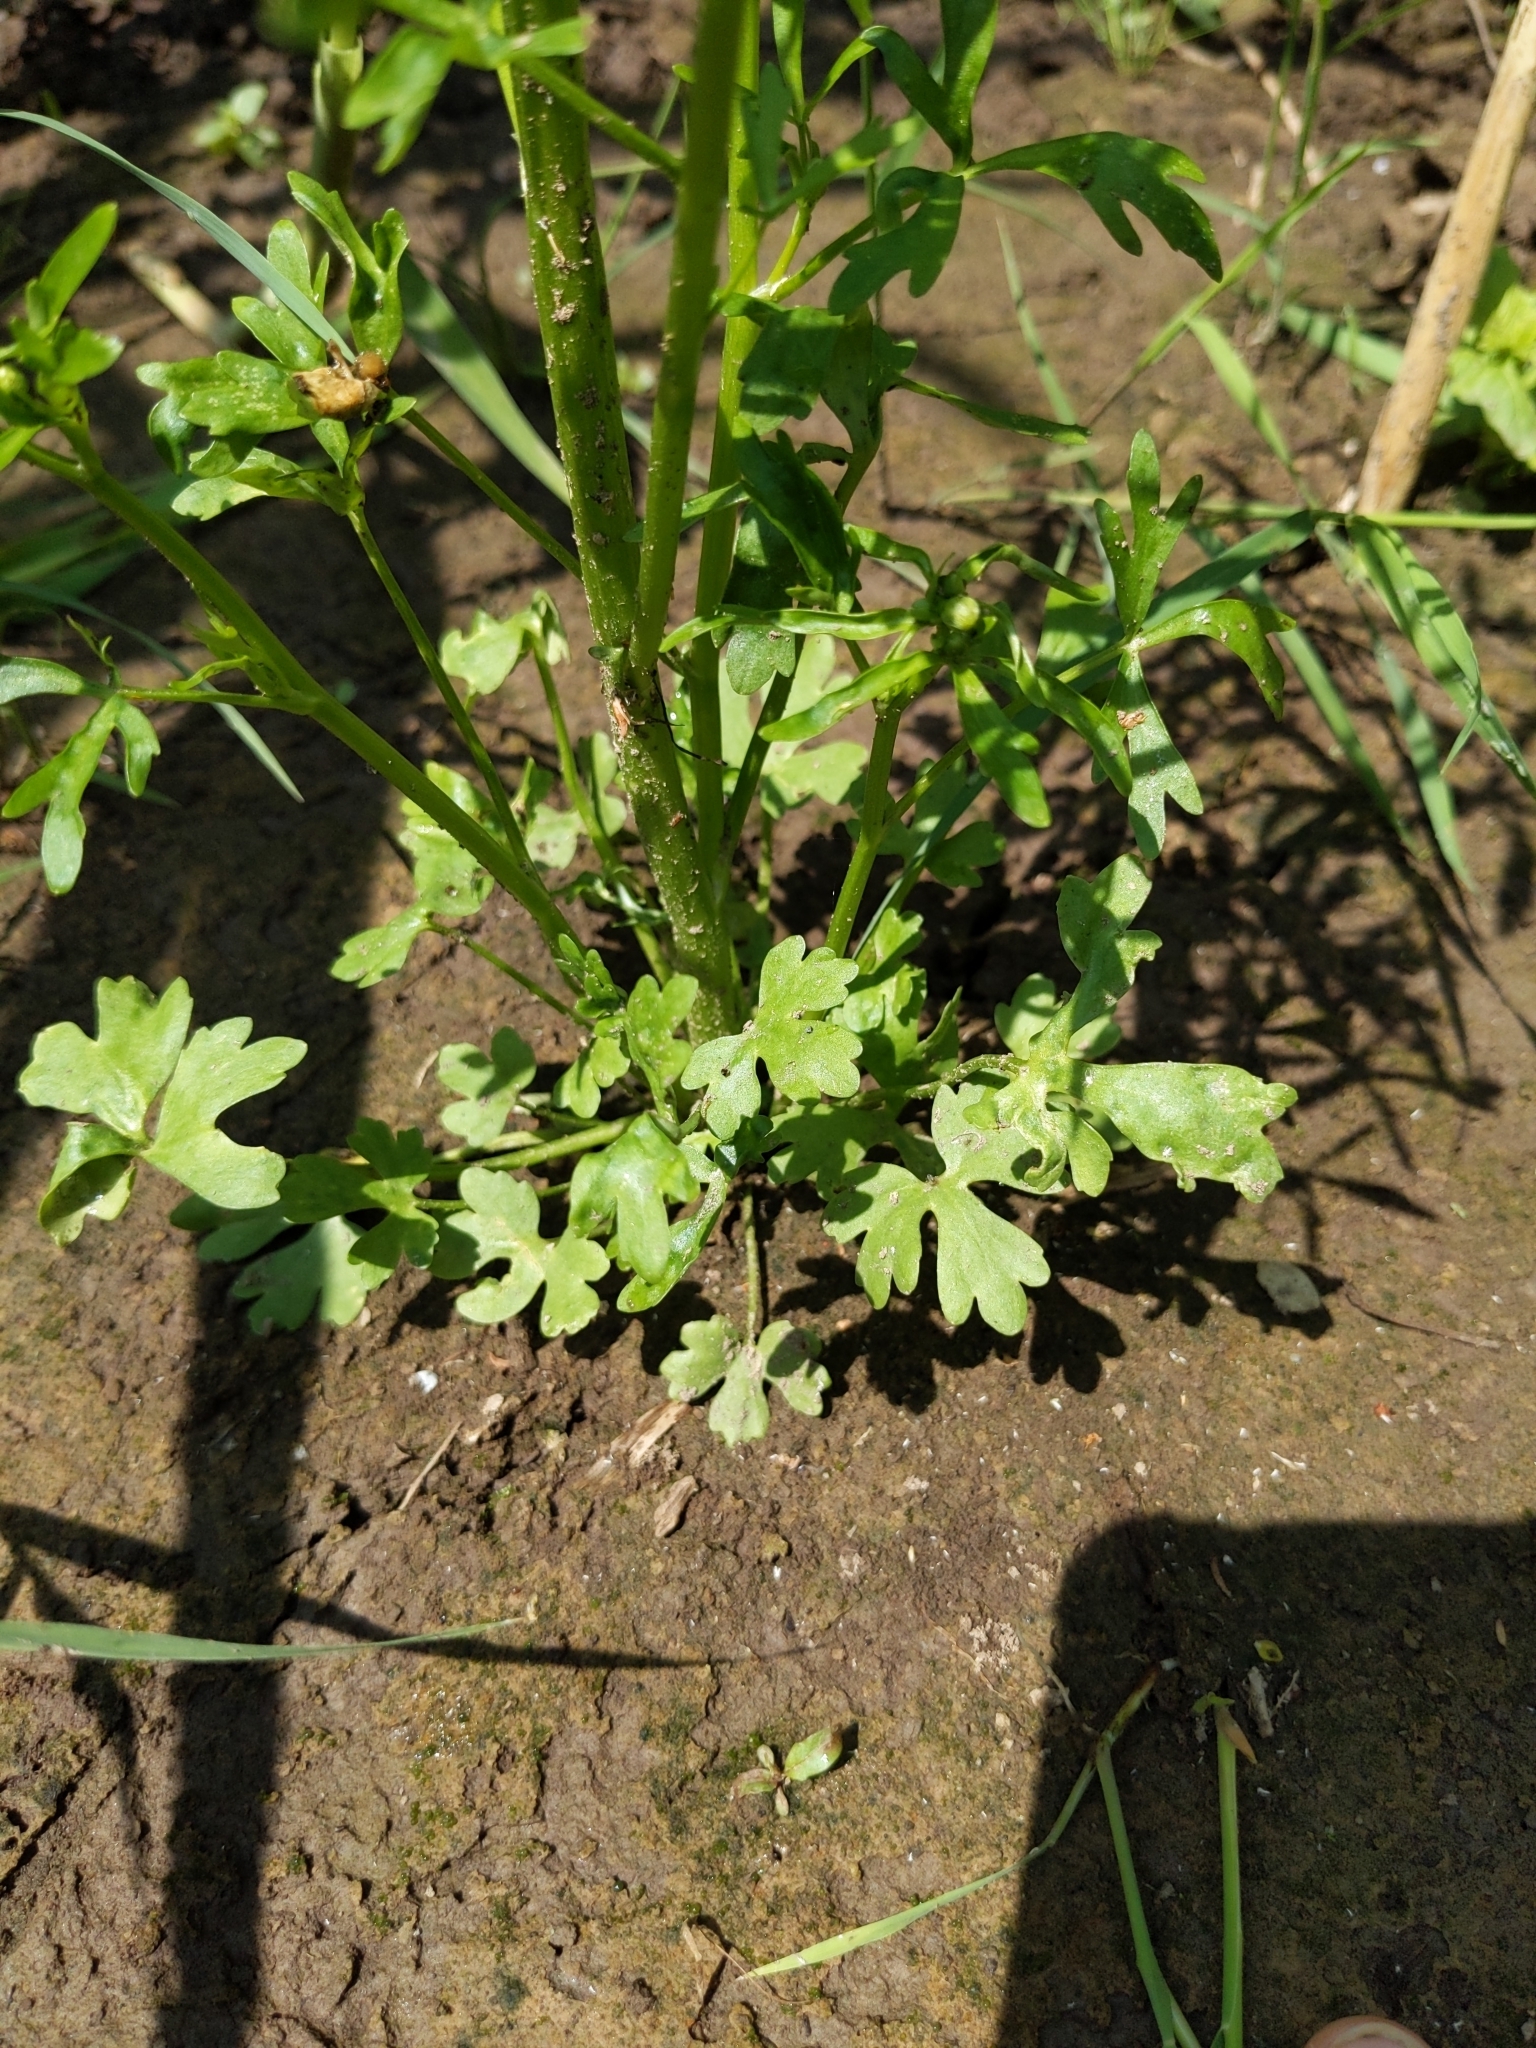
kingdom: Plantae
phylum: Tracheophyta
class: Magnoliopsida
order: Ranunculales
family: Ranunculaceae
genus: Ranunculus
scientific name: Ranunculus sceleratus
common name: Celery-leaved buttercup
